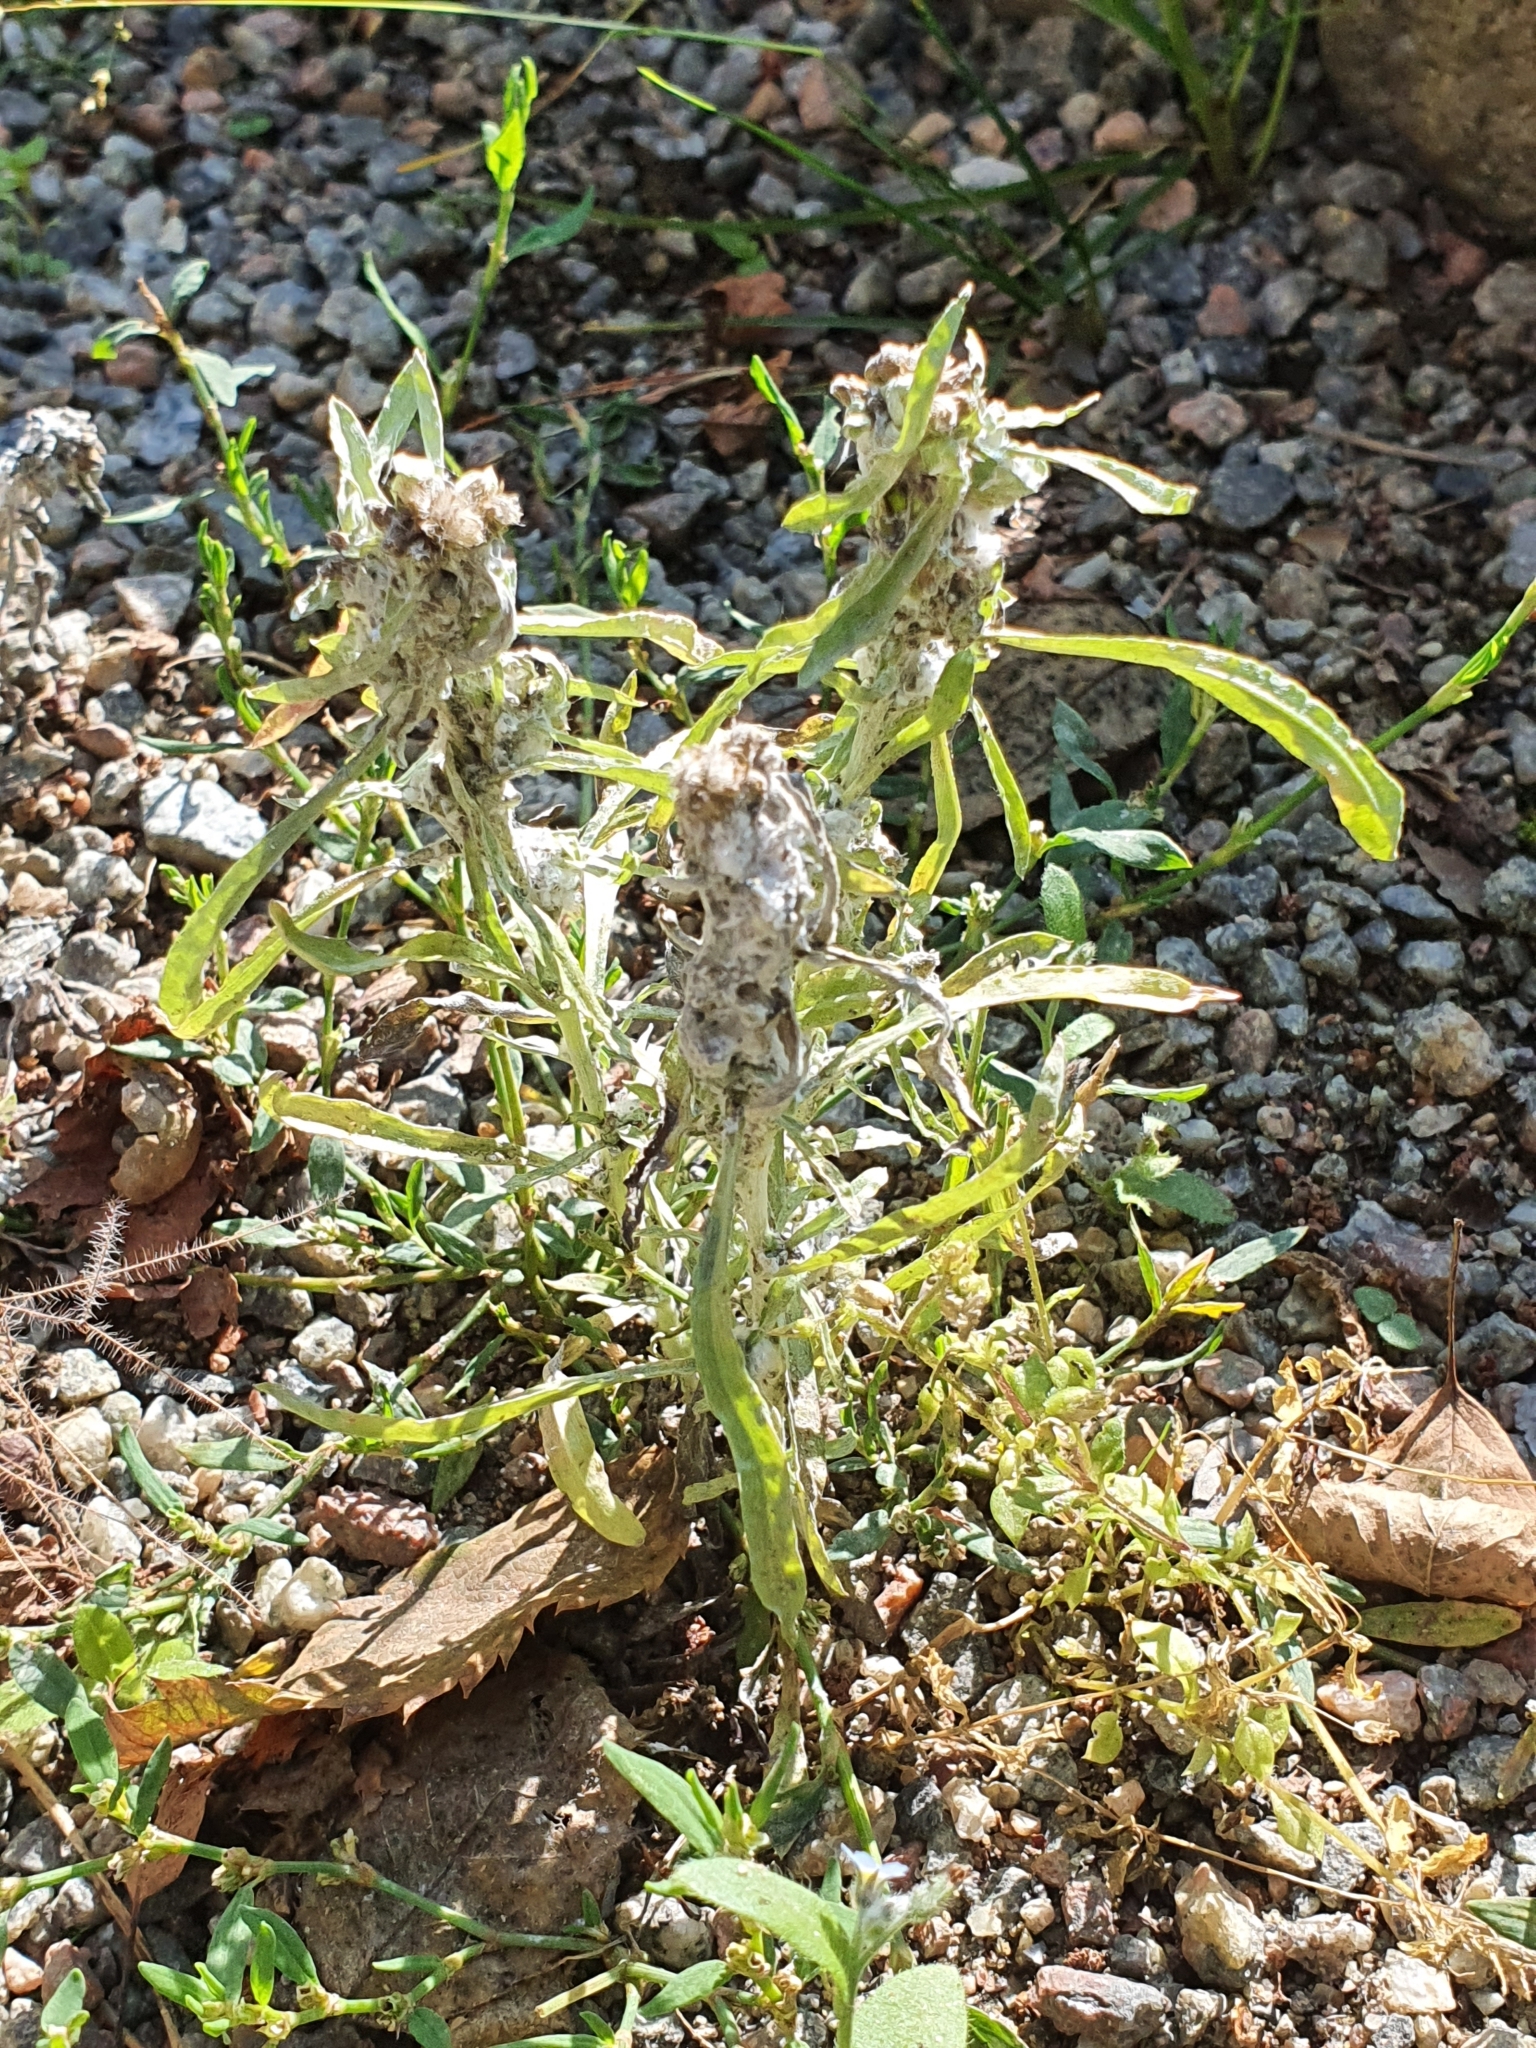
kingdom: Plantae
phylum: Tracheophyta
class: Magnoliopsida
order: Asterales
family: Asteraceae
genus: Gnaphalium
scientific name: Gnaphalium uliginosum
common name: Marsh cudweed
